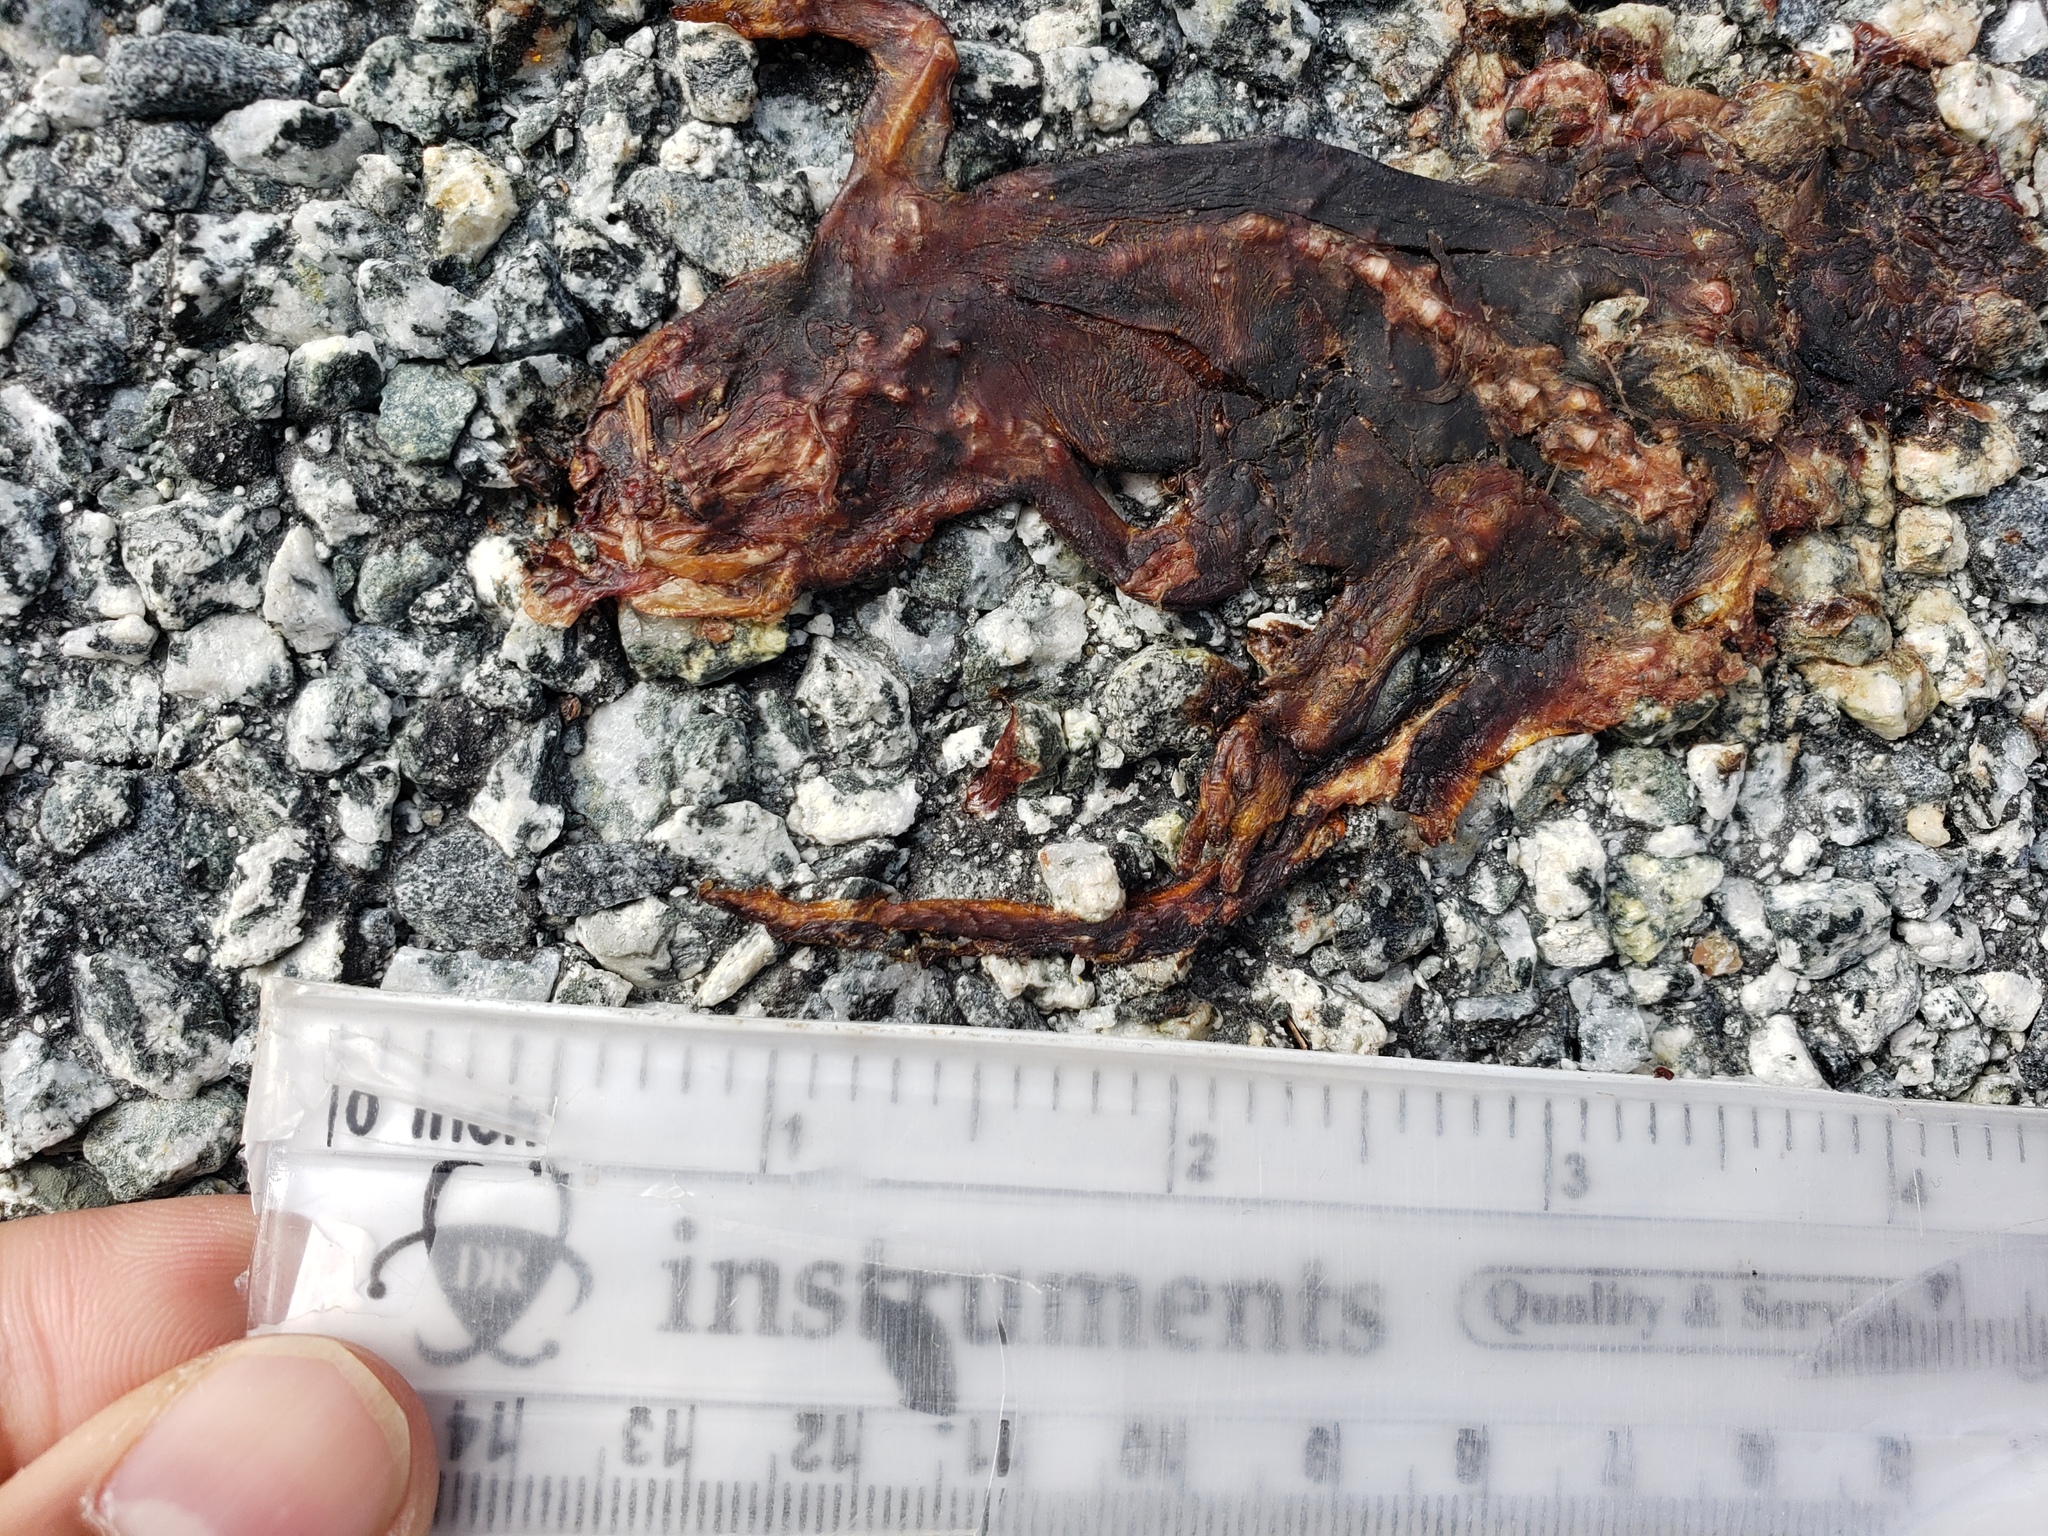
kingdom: Animalia
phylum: Chordata
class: Amphibia
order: Caudata
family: Salamandridae
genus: Taricha
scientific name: Taricha
